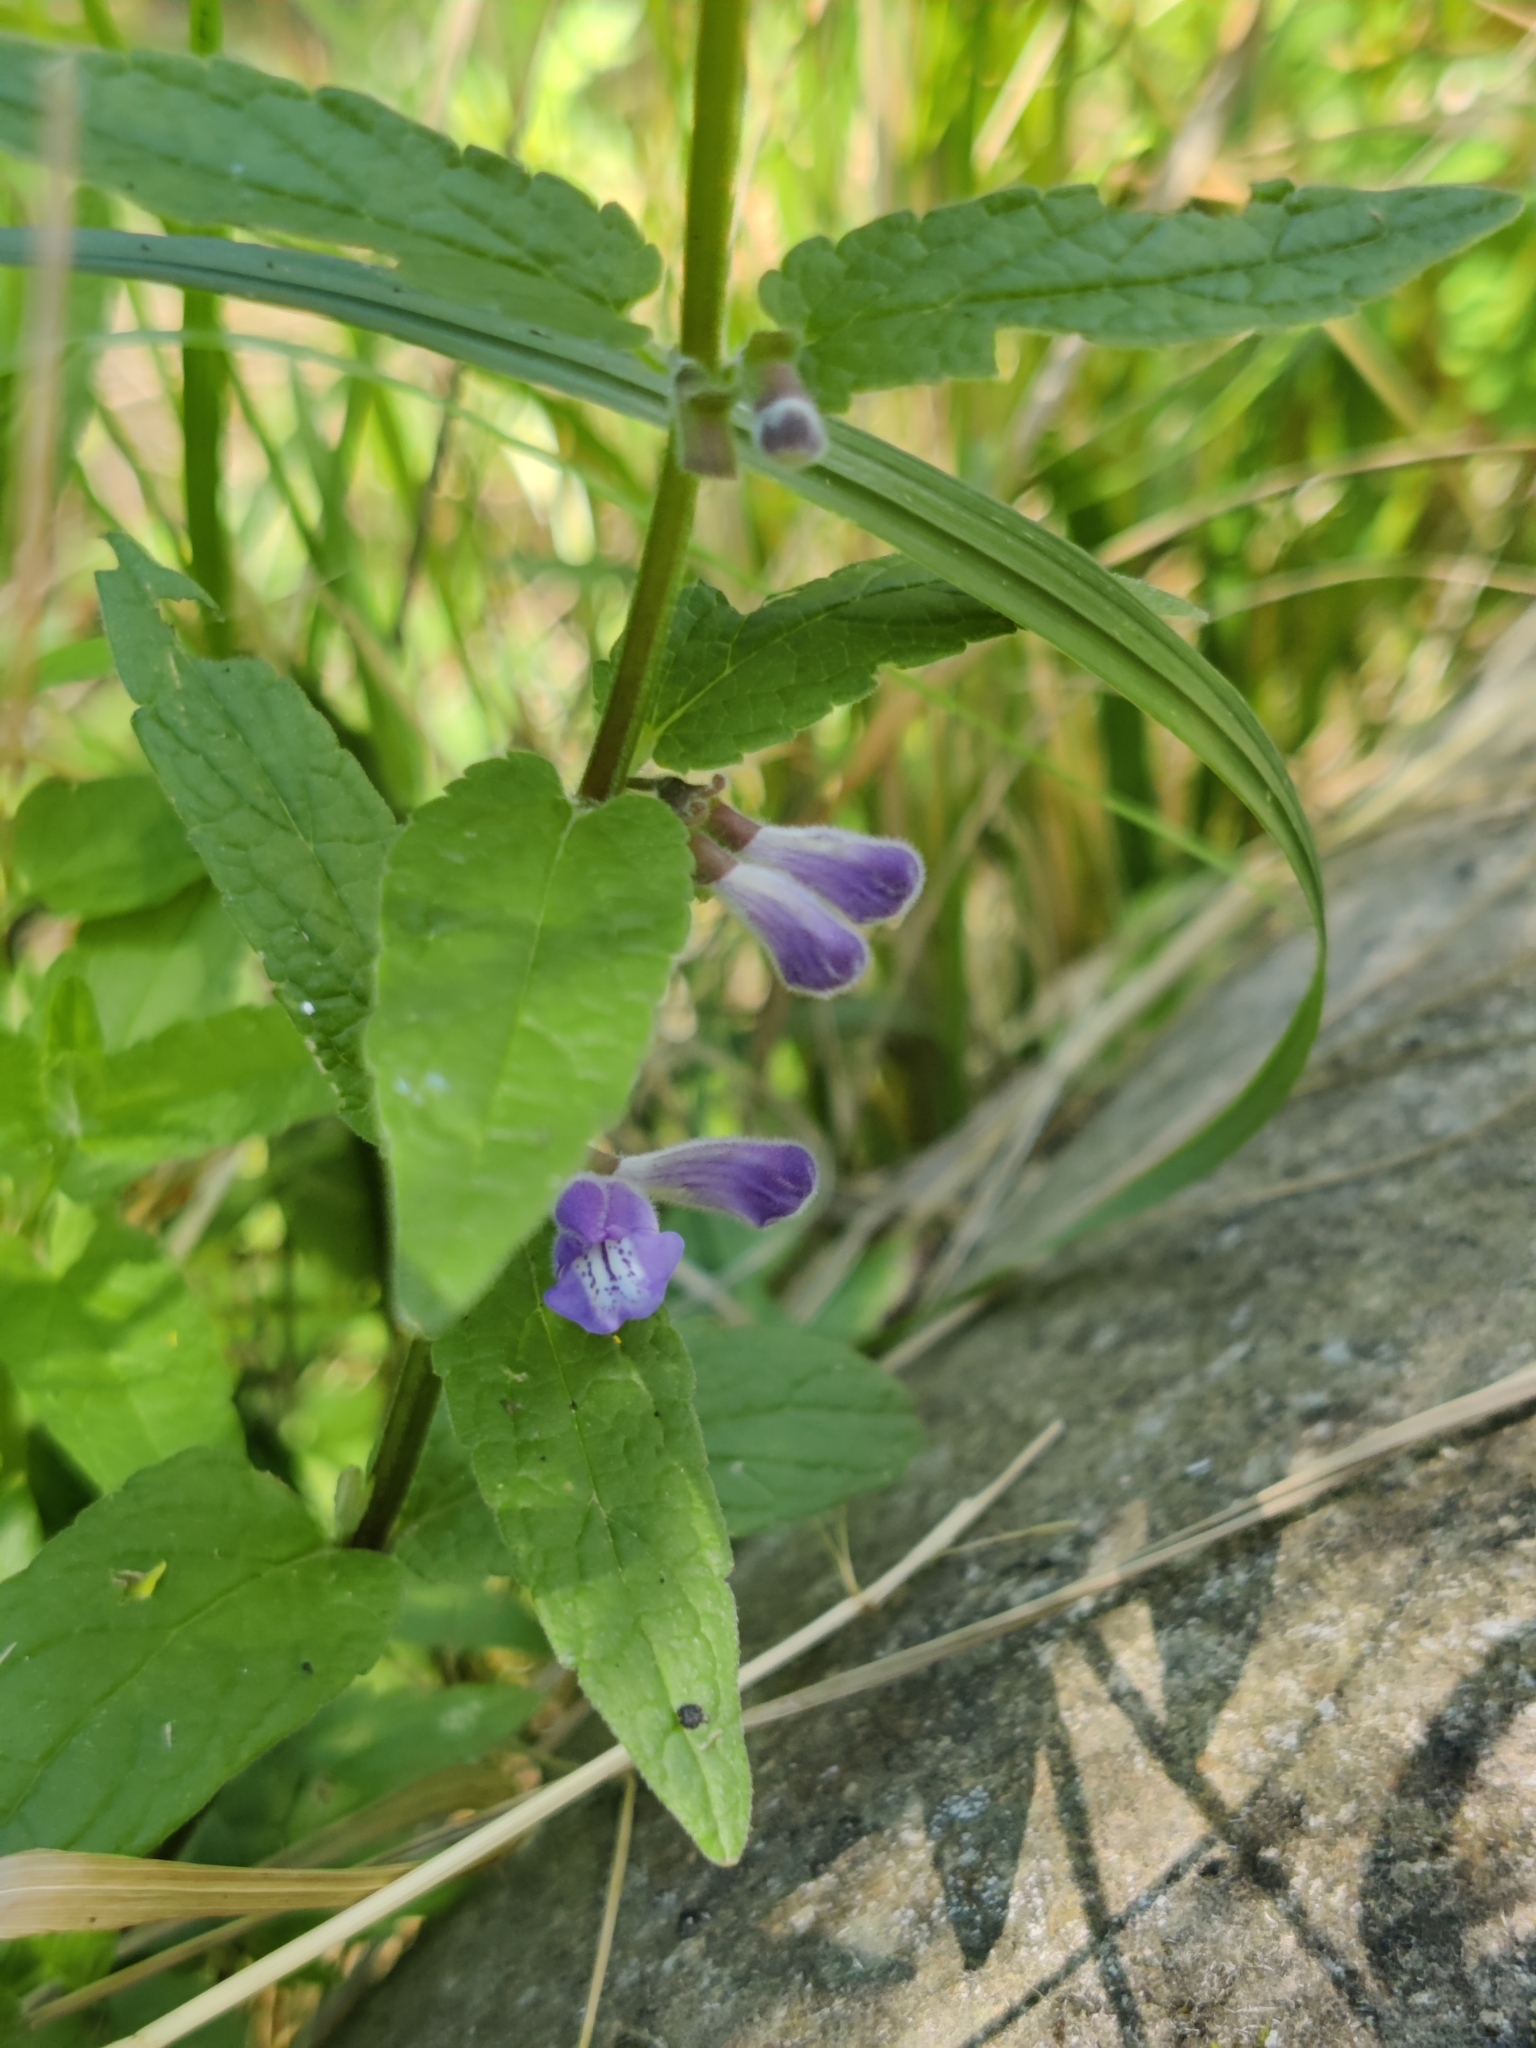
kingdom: Plantae
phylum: Tracheophyta
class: Magnoliopsida
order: Lamiales
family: Lamiaceae
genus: Scutellaria
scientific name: Scutellaria galericulata
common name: Skullcap
